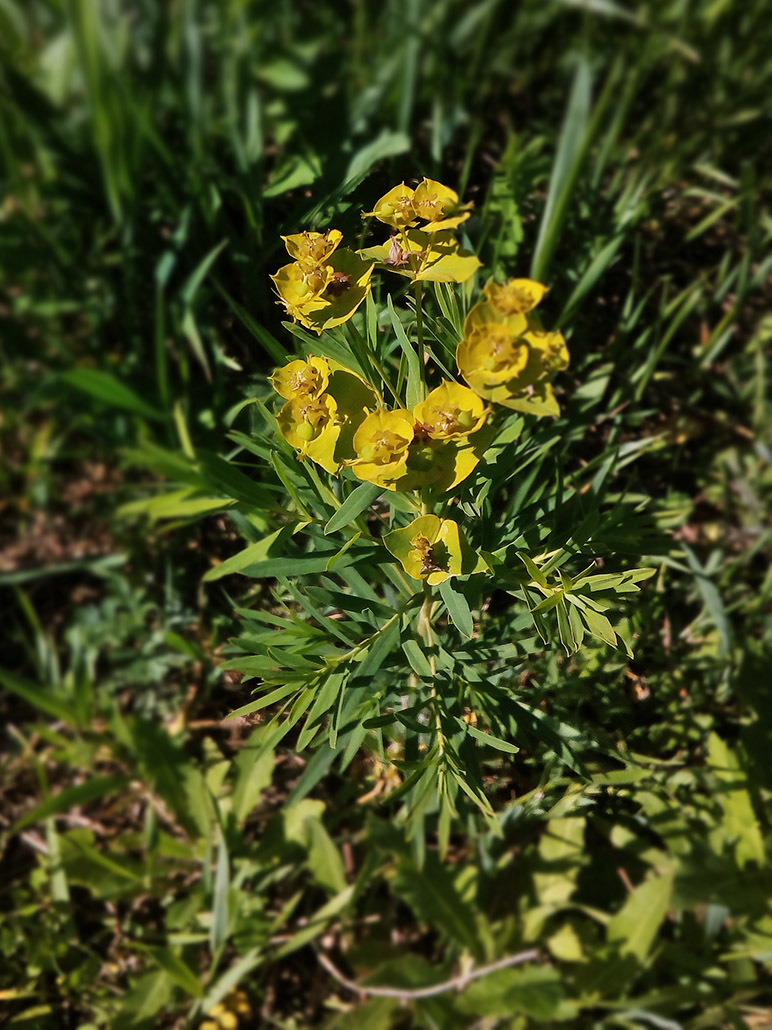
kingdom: Plantae
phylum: Tracheophyta
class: Magnoliopsida
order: Malpighiales
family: Euphorbiaceae
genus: Euphorbia
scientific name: Euphorbia virgata
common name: Leafy spurge
